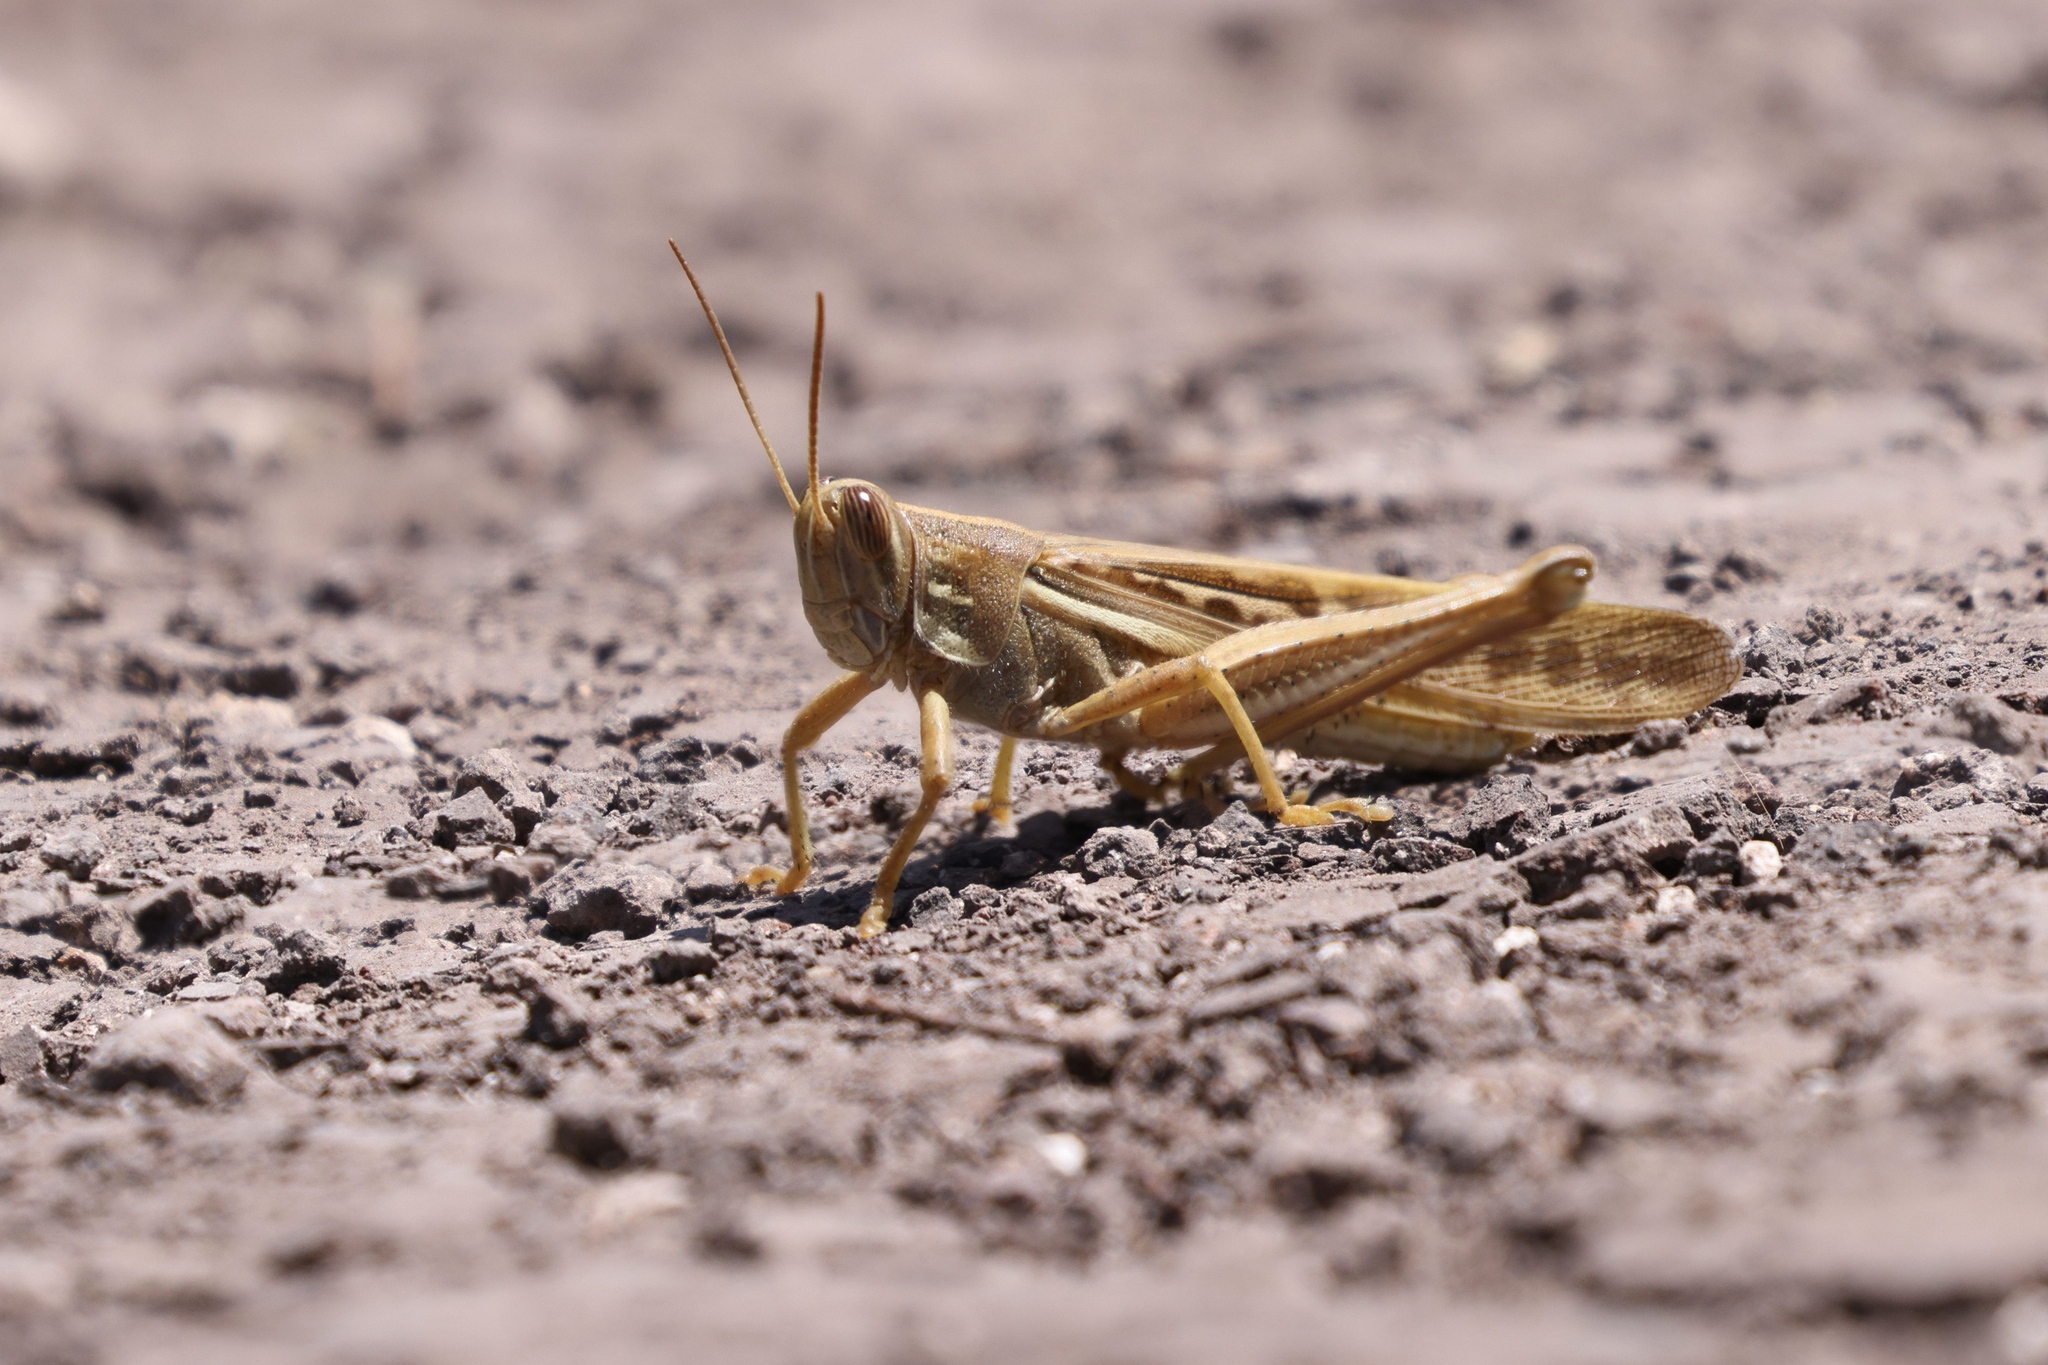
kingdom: Animalia
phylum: Arthropoda
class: Insecta
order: Orthoptera
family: Acrididae
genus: Schistocerca
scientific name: Schistocerca cancellata
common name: South american locust
